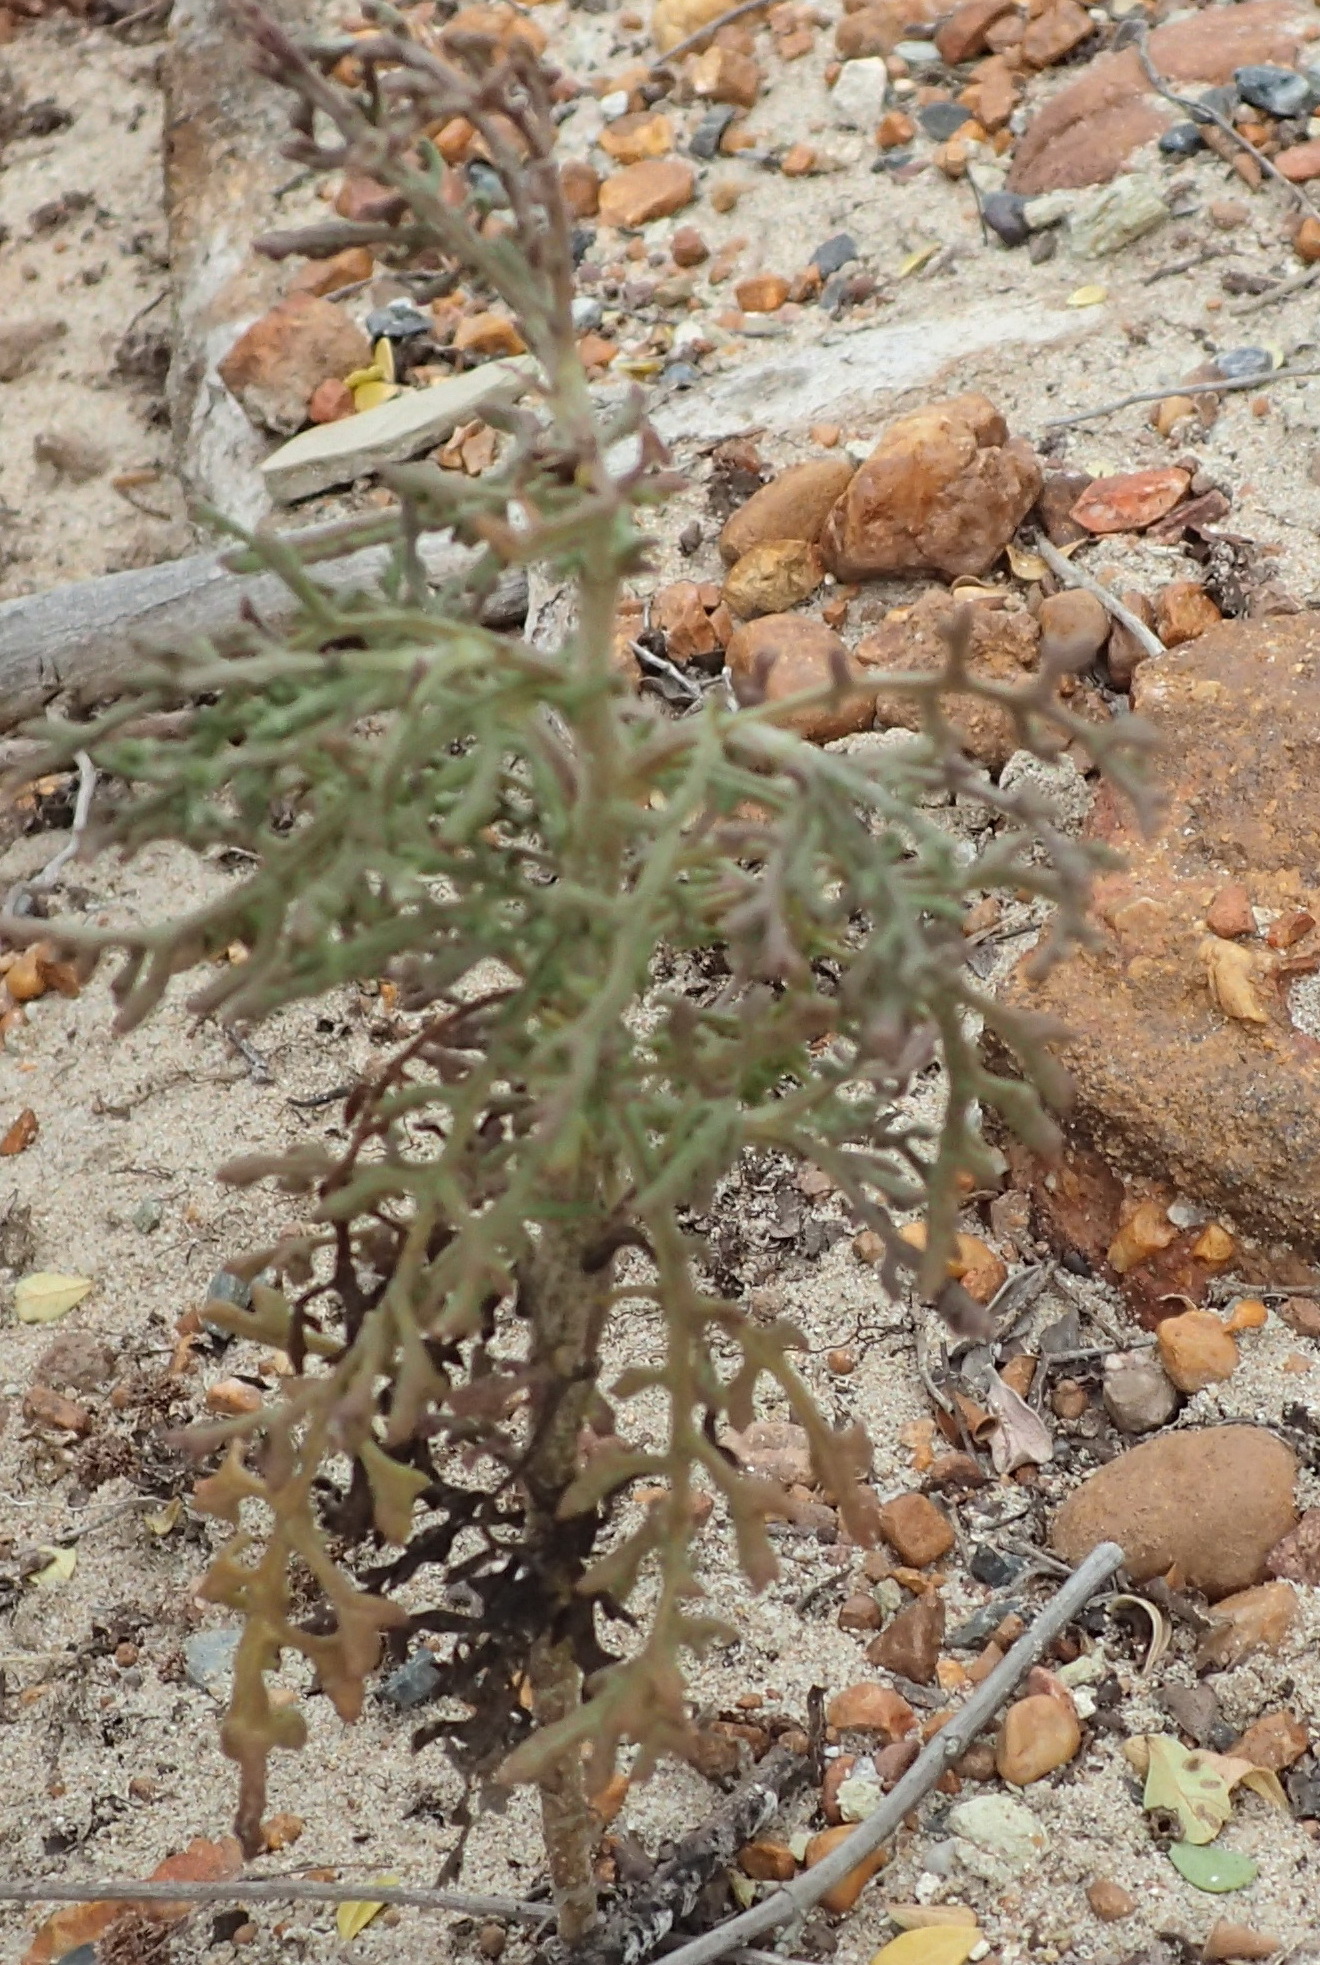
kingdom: Plantae
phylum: Tracheophyta
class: Magnoliopsida
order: Asterales
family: Asteraceae
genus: Senecio
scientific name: Senecio elegans
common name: Purple groundsel
